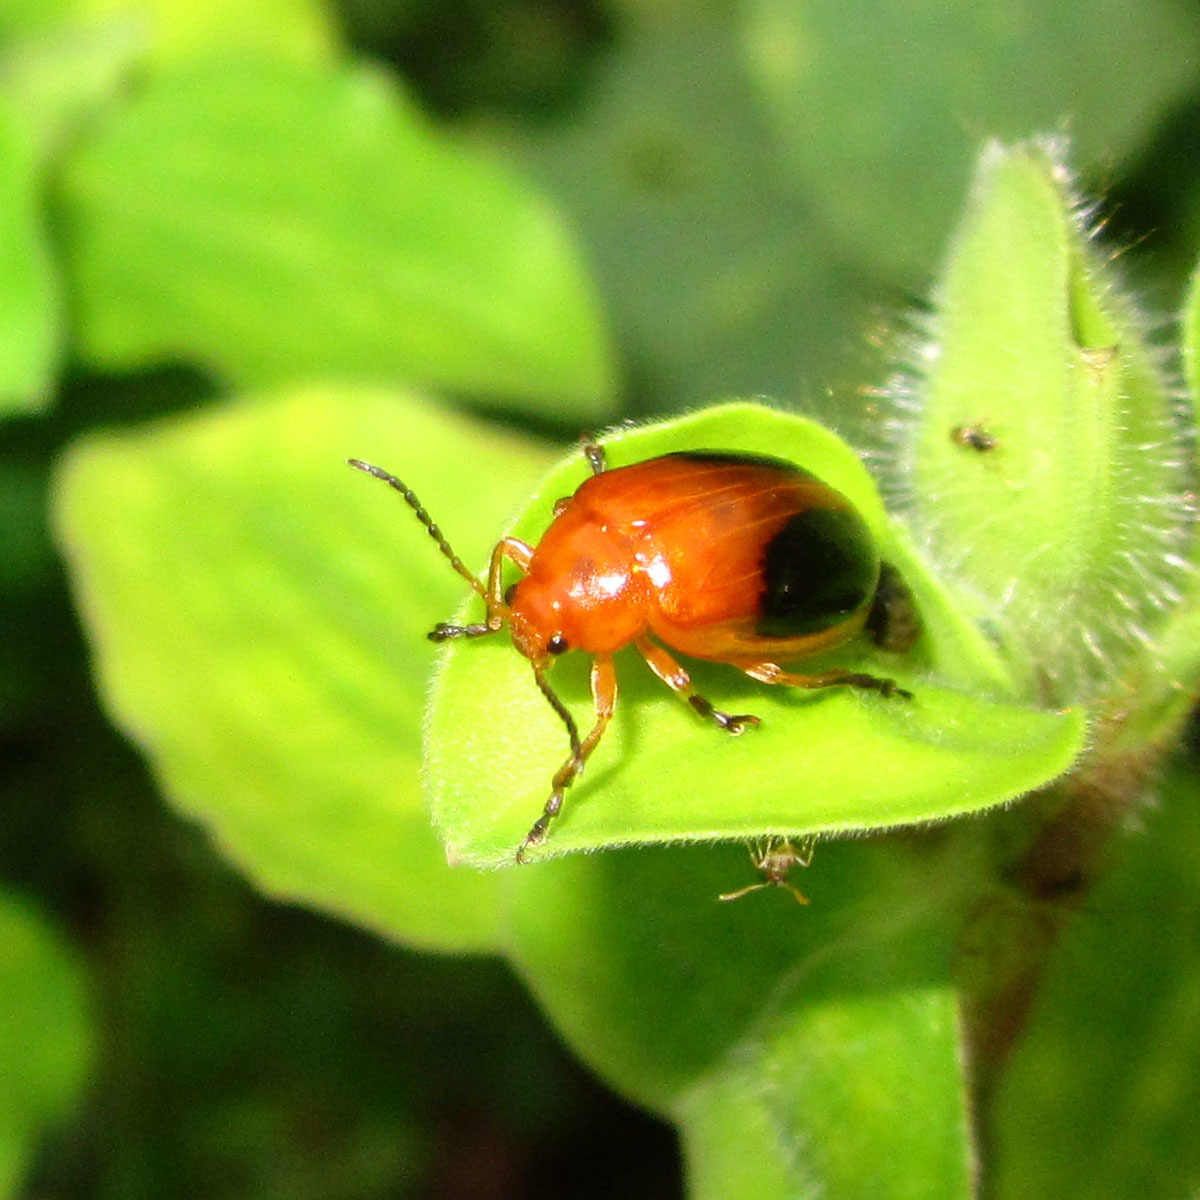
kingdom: Animalia
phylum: Arthropoda
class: Insecta
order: Coleoptera
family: Chrysomelidae
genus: Oides
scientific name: Oides affinis
